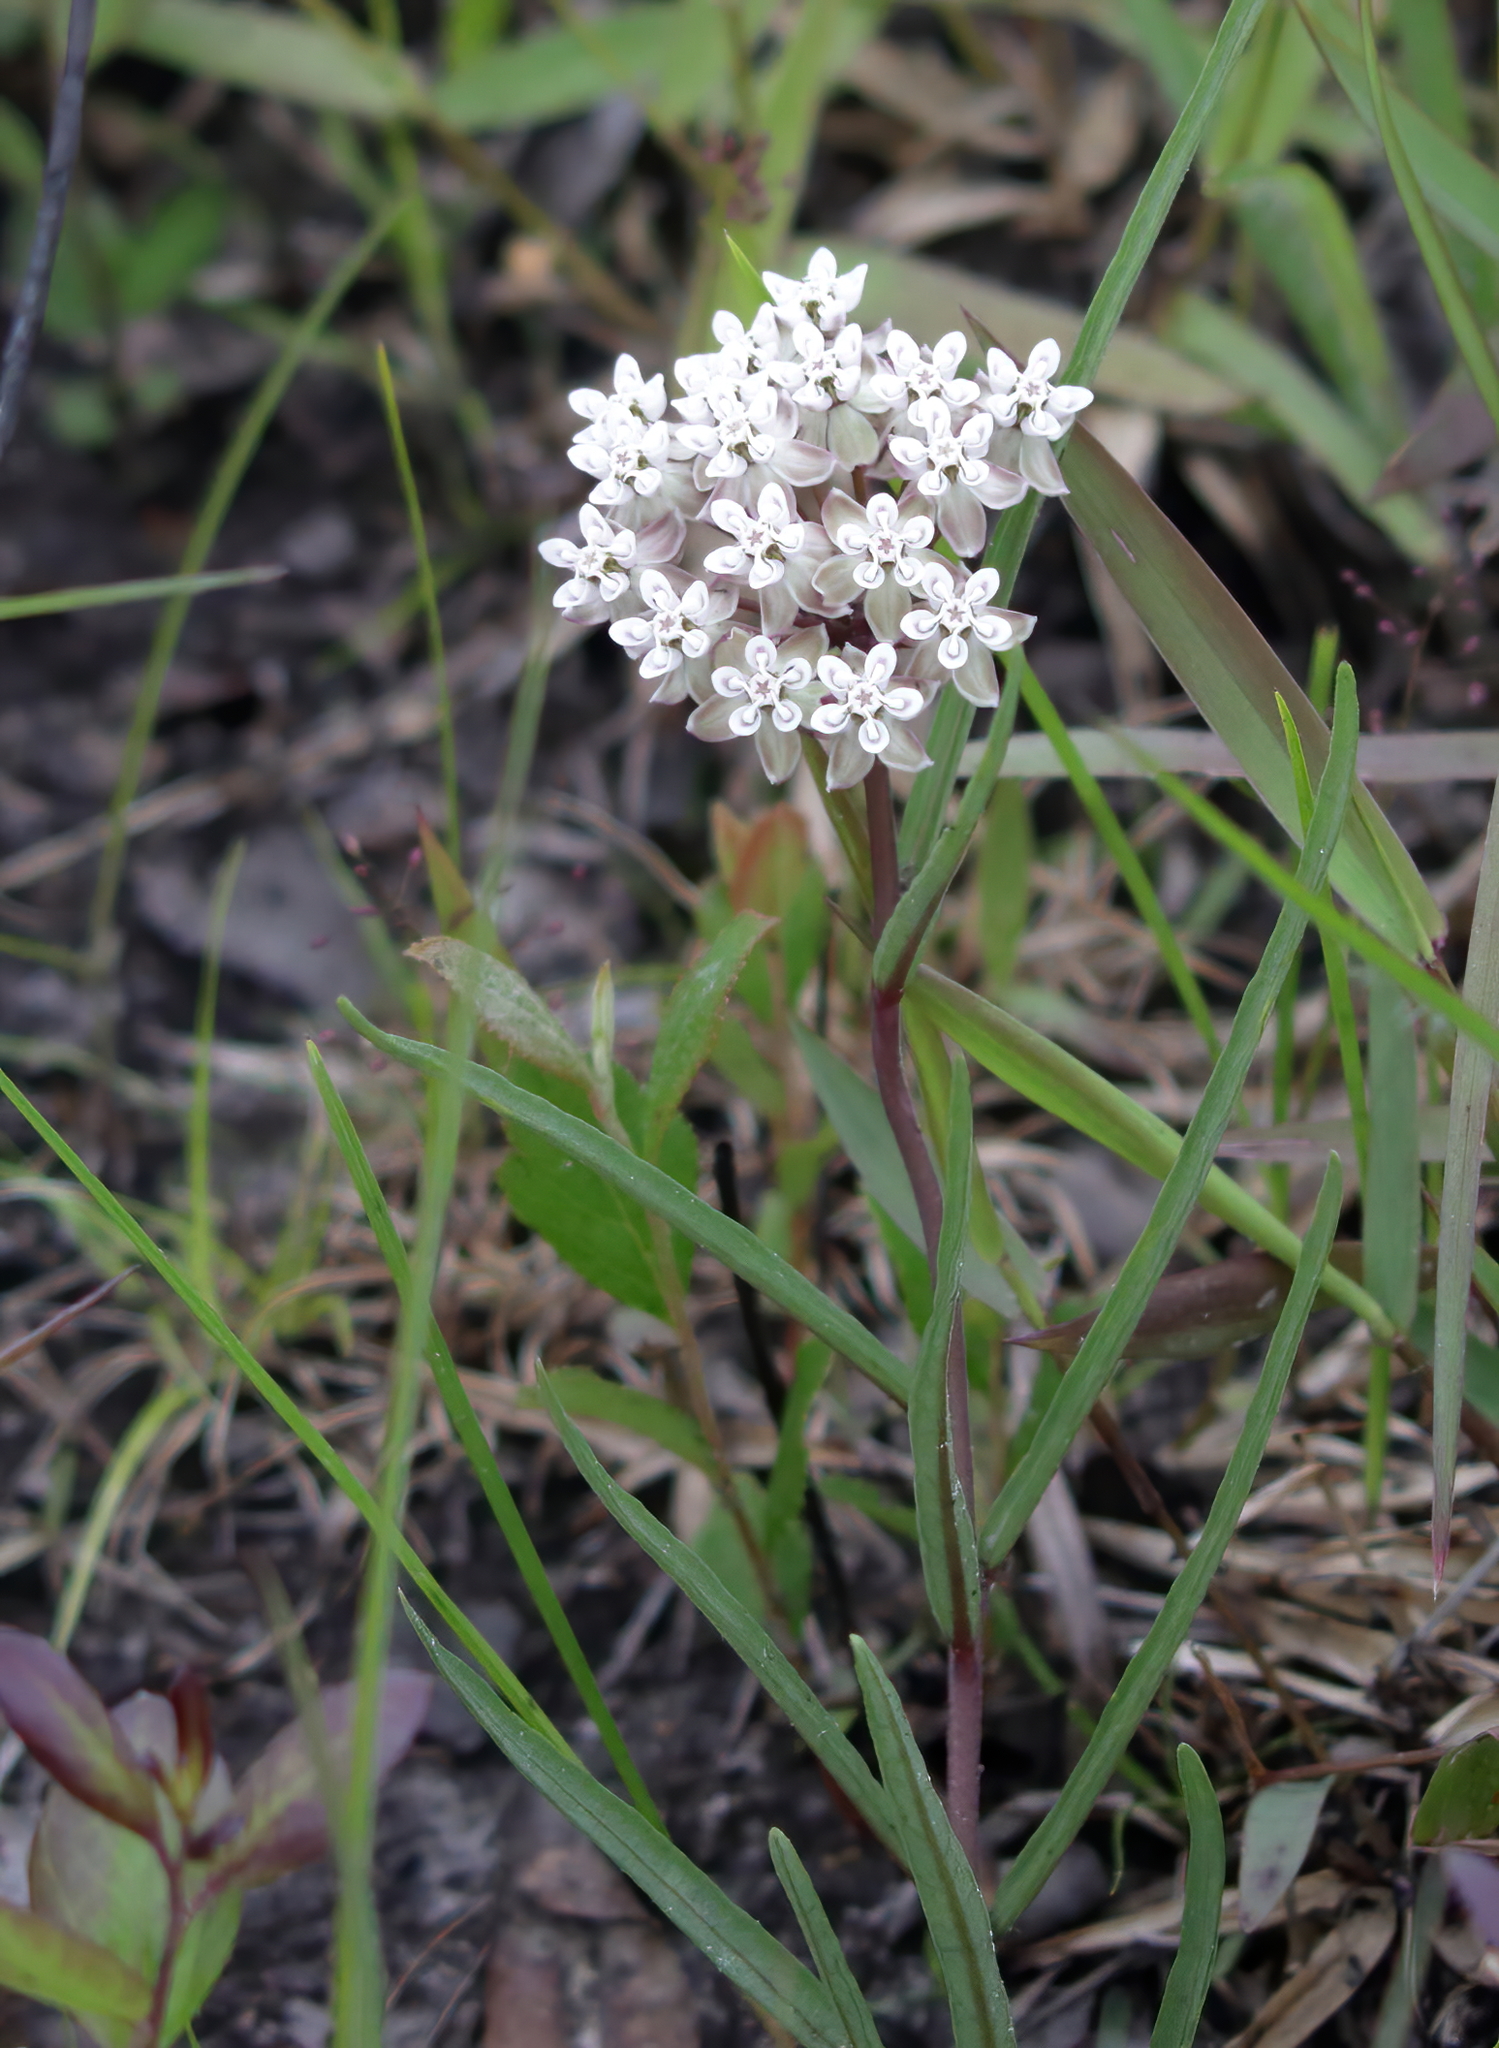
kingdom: Plantae
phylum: Tracheophyta
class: Magnoliopsida
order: Gentianales
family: Apocynaceae
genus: Asclepias
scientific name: Asclepias michauxii
